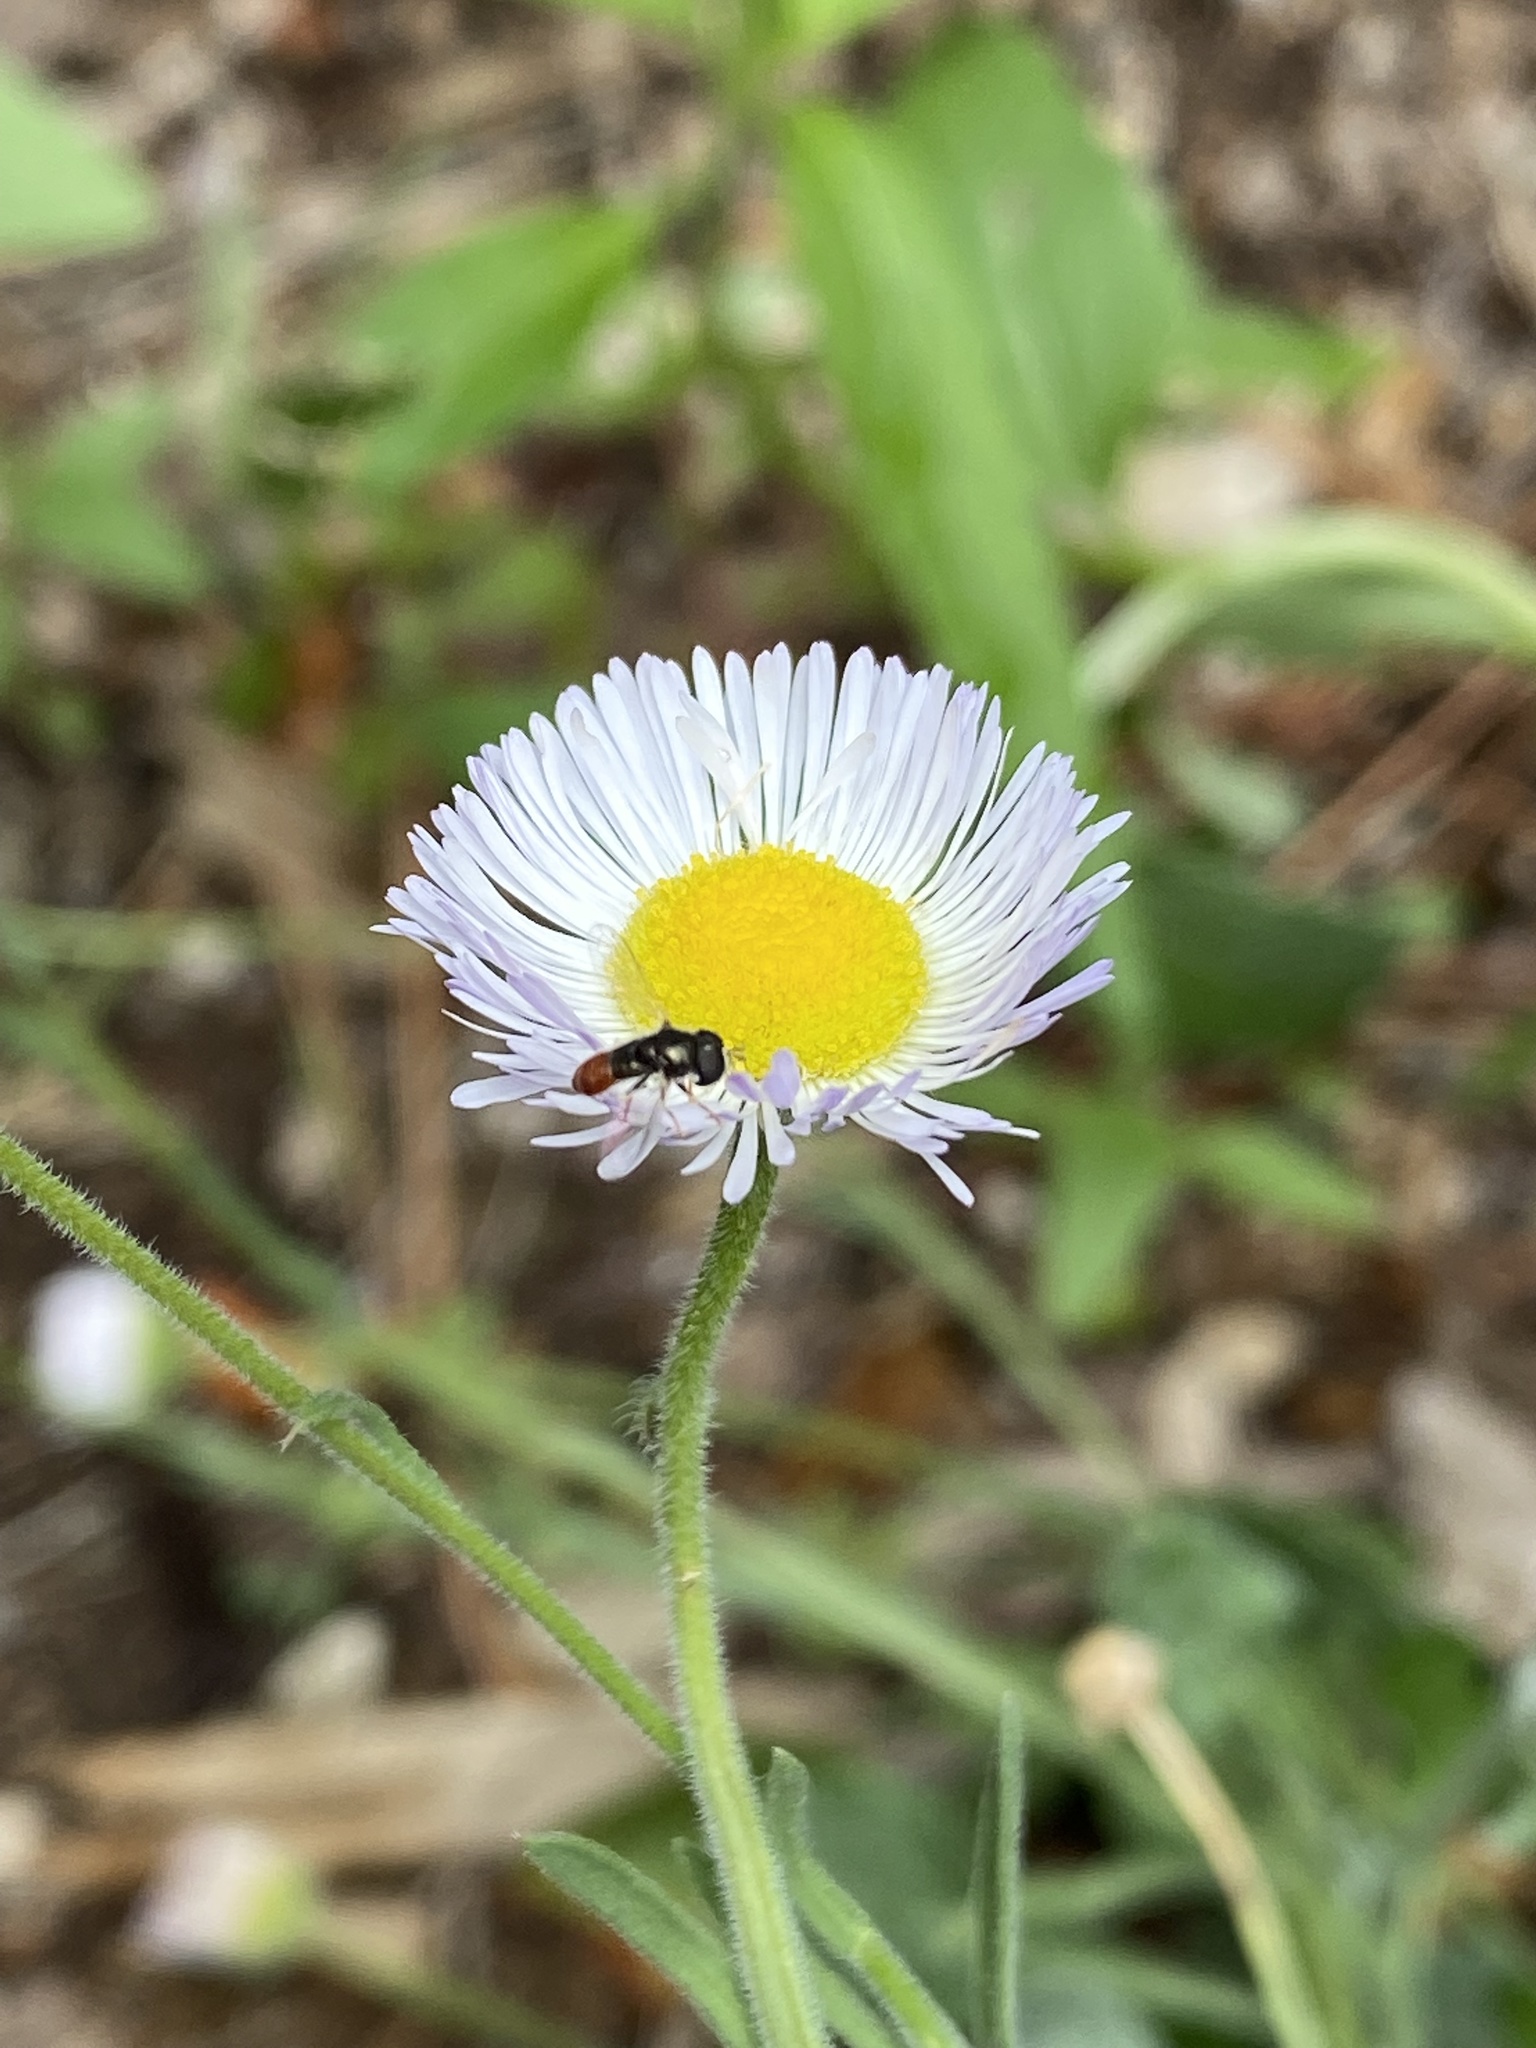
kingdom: Animalia
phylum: Arthropoda
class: Insecta
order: Diptera
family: Syrphidae
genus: Paragus
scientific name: Paragus haemorrhous
